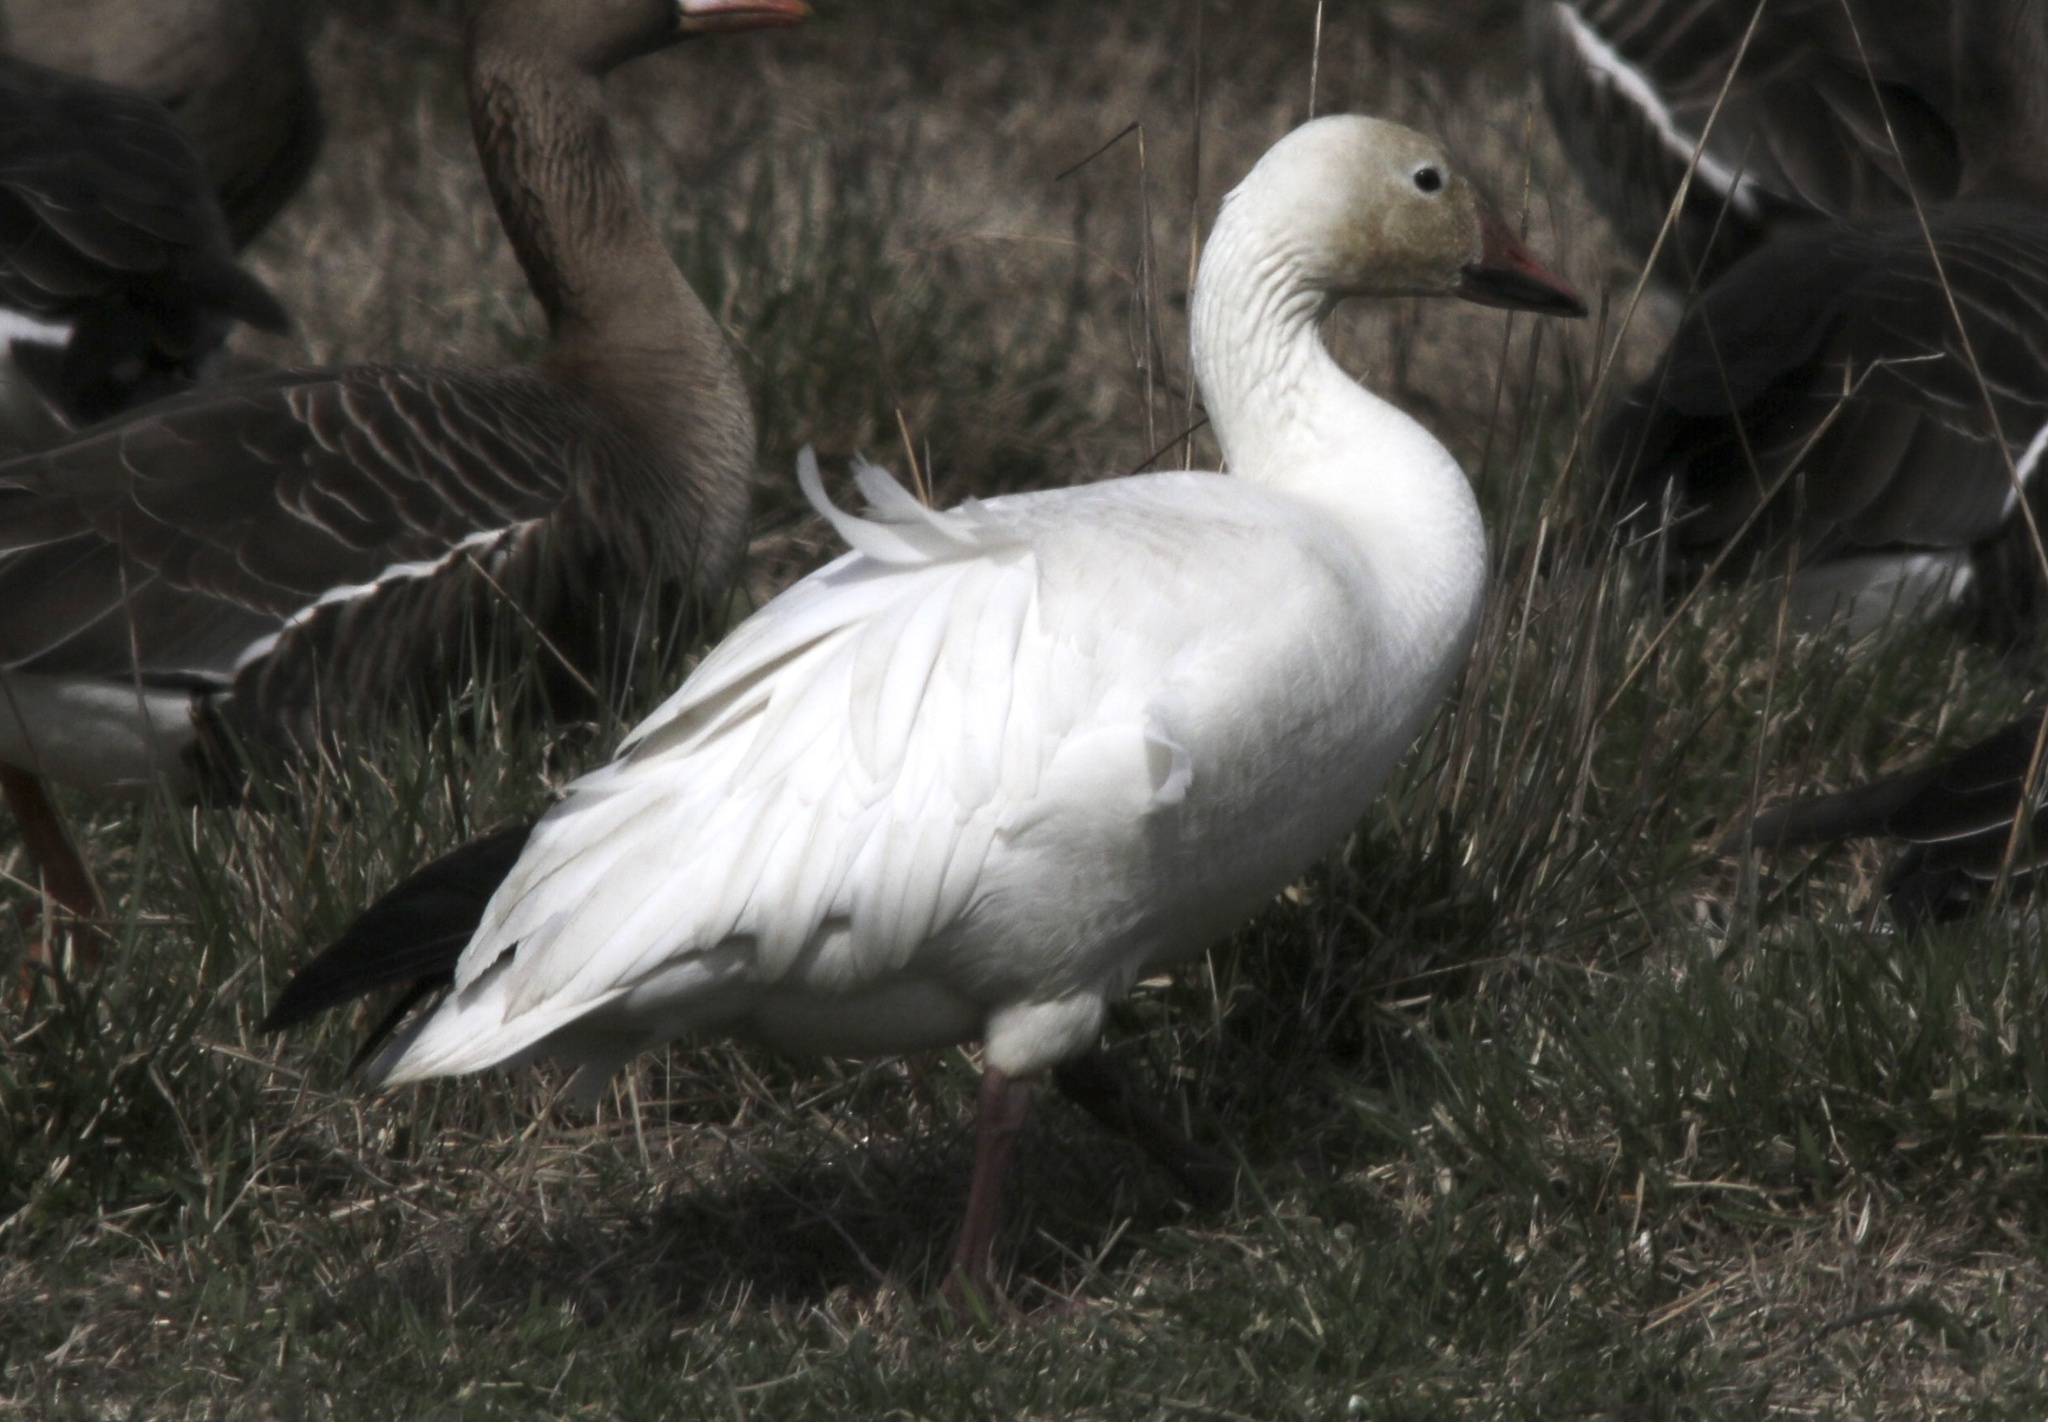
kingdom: Animalia
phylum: Chordata
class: Aves
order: Anseriformes
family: Anatidae
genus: Anser
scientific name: Anser caerulescens
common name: Snow goose
